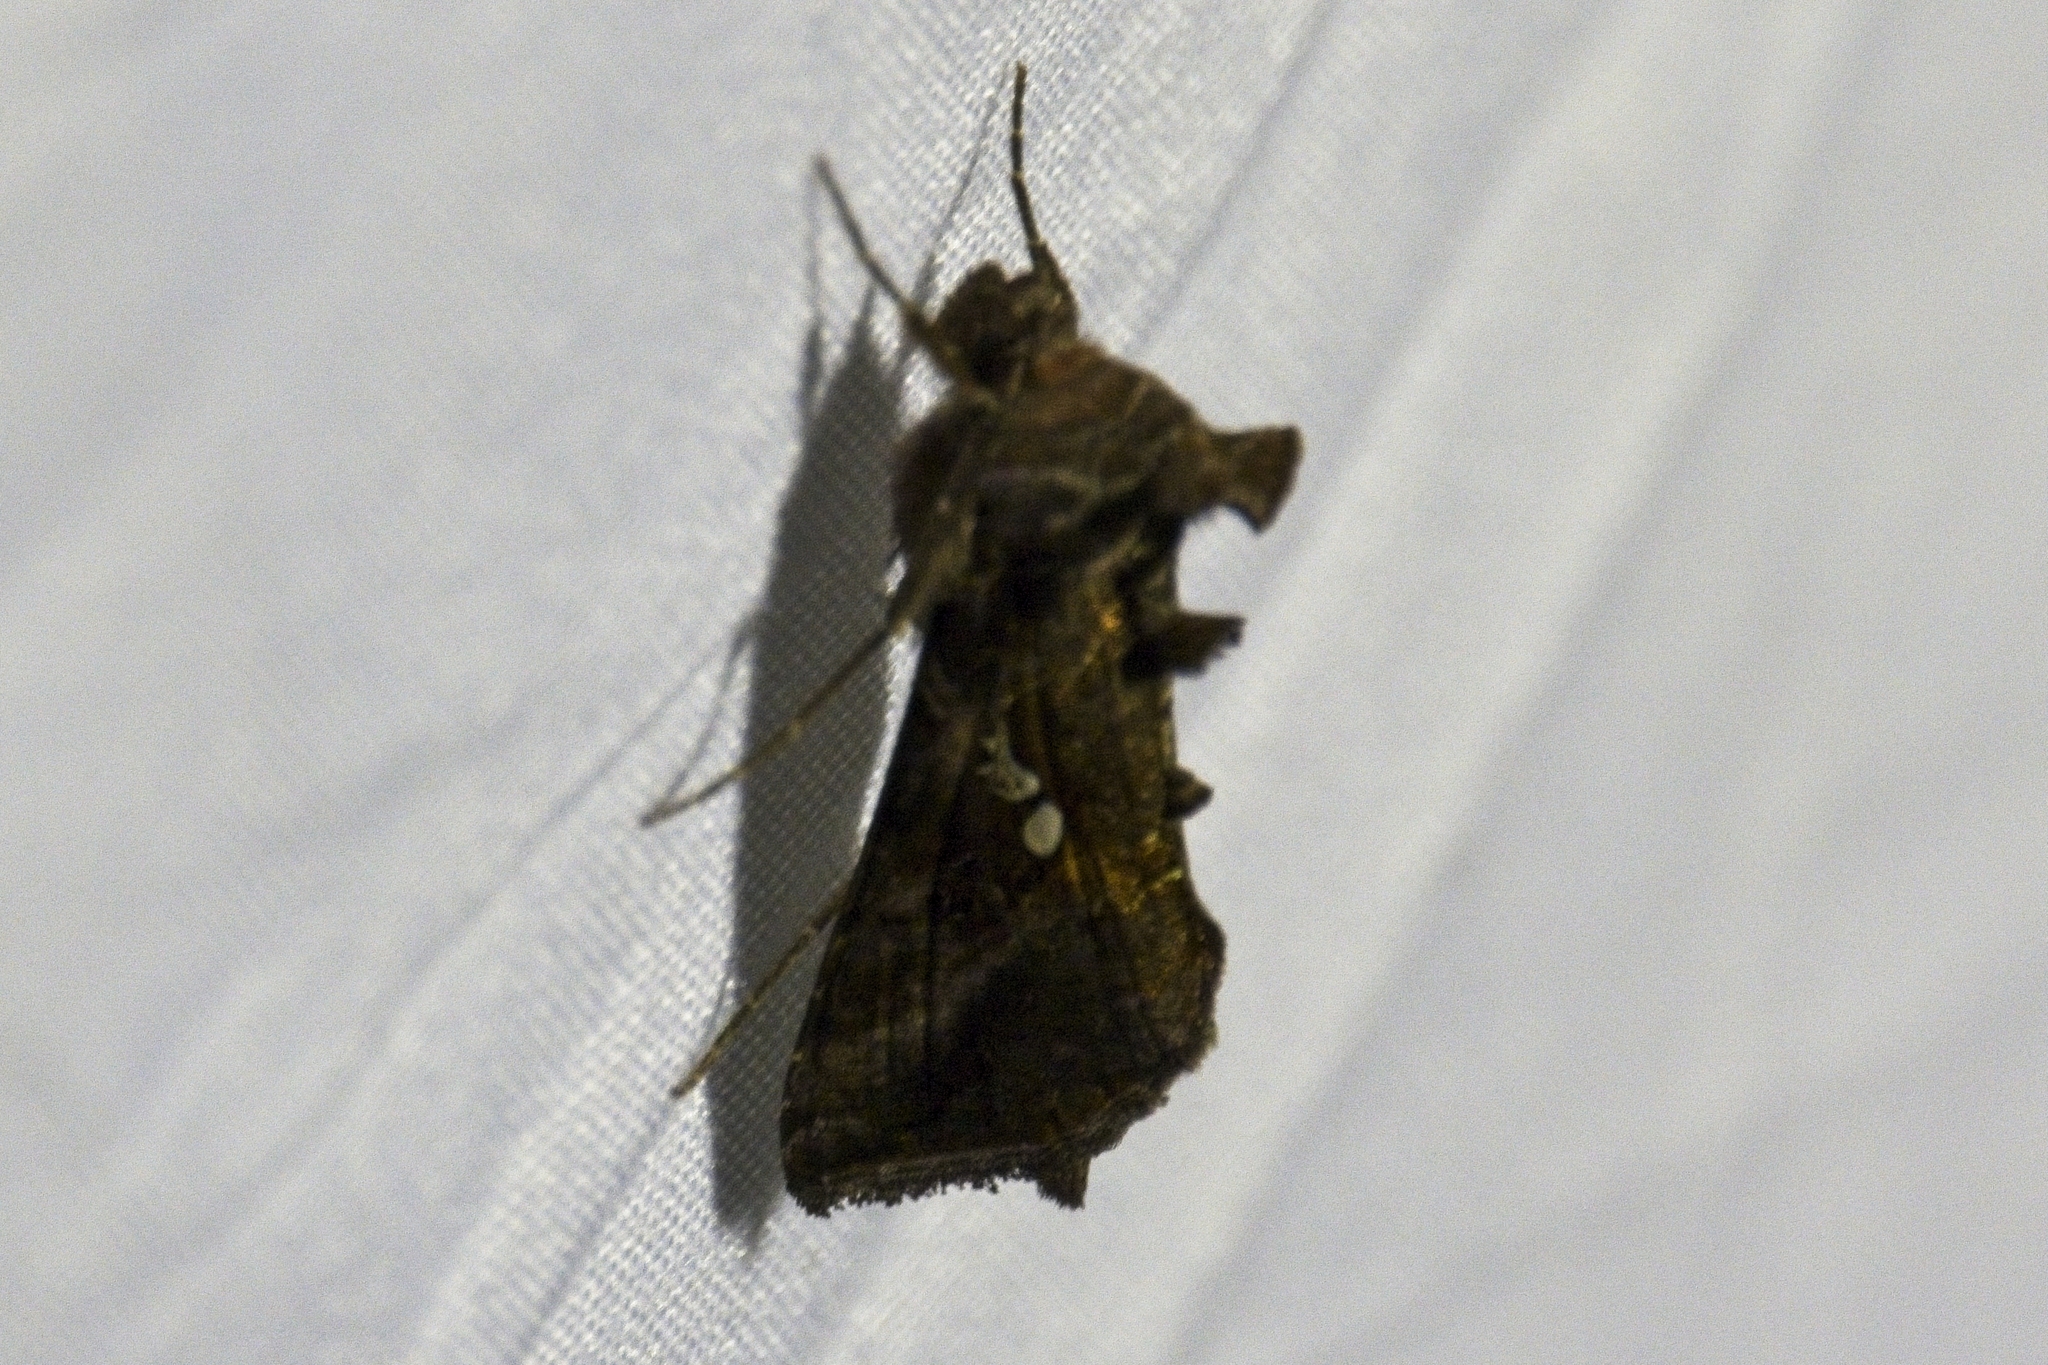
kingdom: Animalia
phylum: Arthropoda
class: Insecta
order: Lepidoptera
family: Noctuidae
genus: Autographa
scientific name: Autographa precationis
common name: Common looper moth
